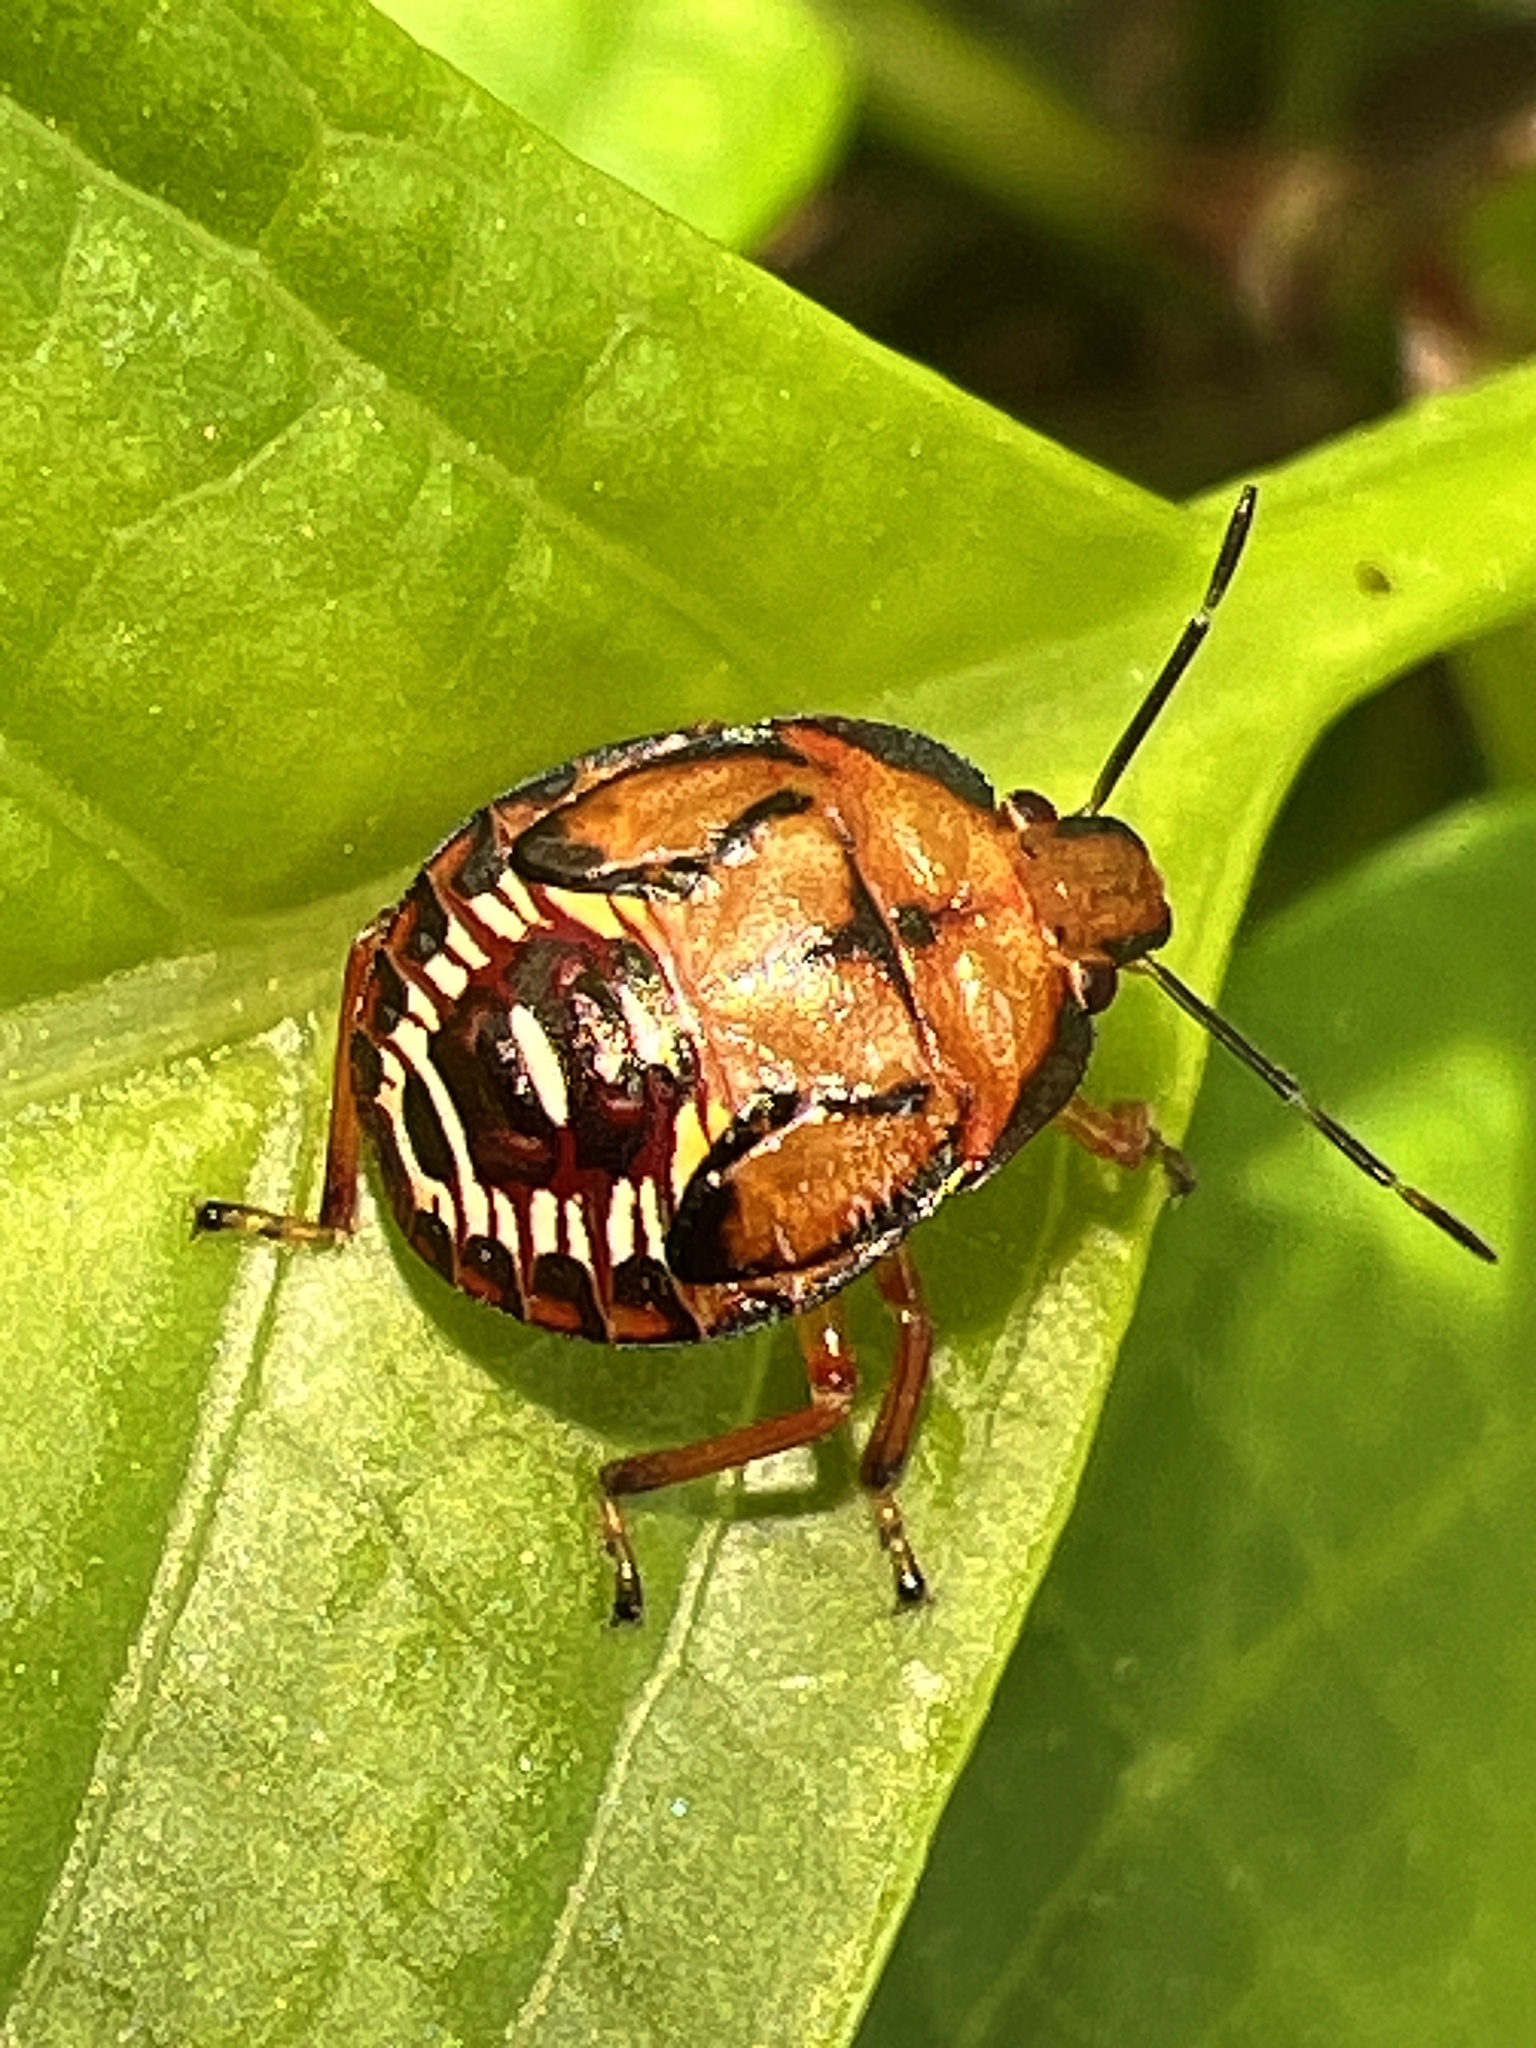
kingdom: Animalia
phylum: Arthropoda
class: Insecta
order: Hemiptera
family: Pentatomidae
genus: Podisus
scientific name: Podisus maculiventris
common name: Spined soldier bug
